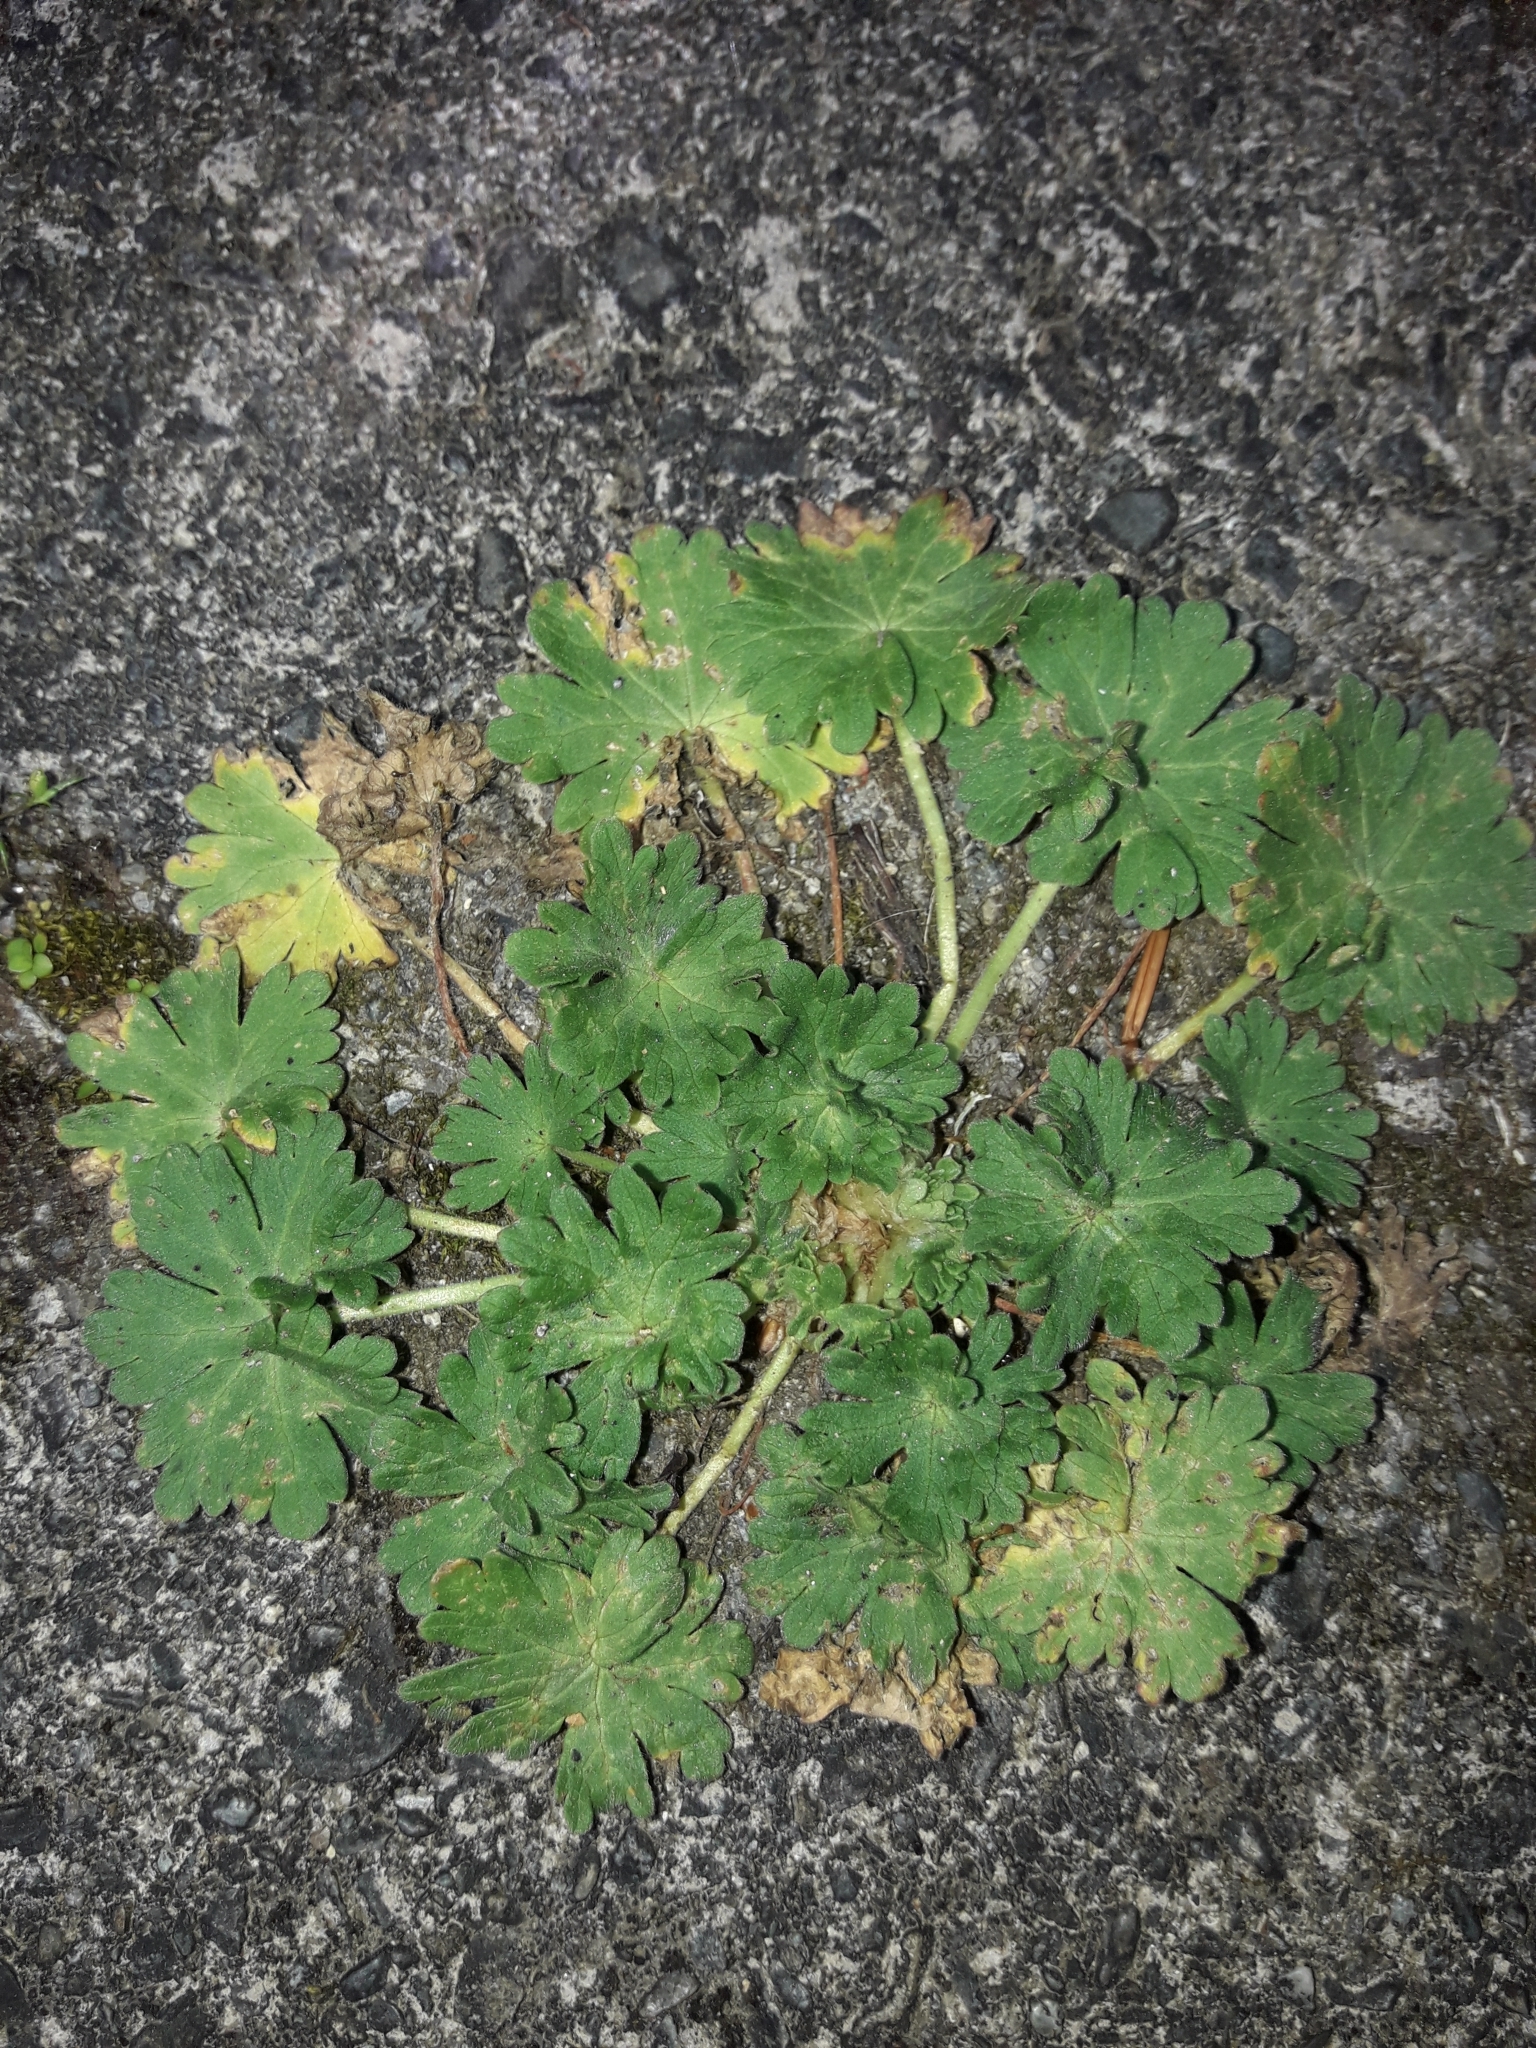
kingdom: Plantae
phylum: Tracheophyta
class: Magnoliopsida
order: Geraniales
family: Geraniaceae
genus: Geranium
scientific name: Geranium molle
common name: Dove's-foot crane's-bill
